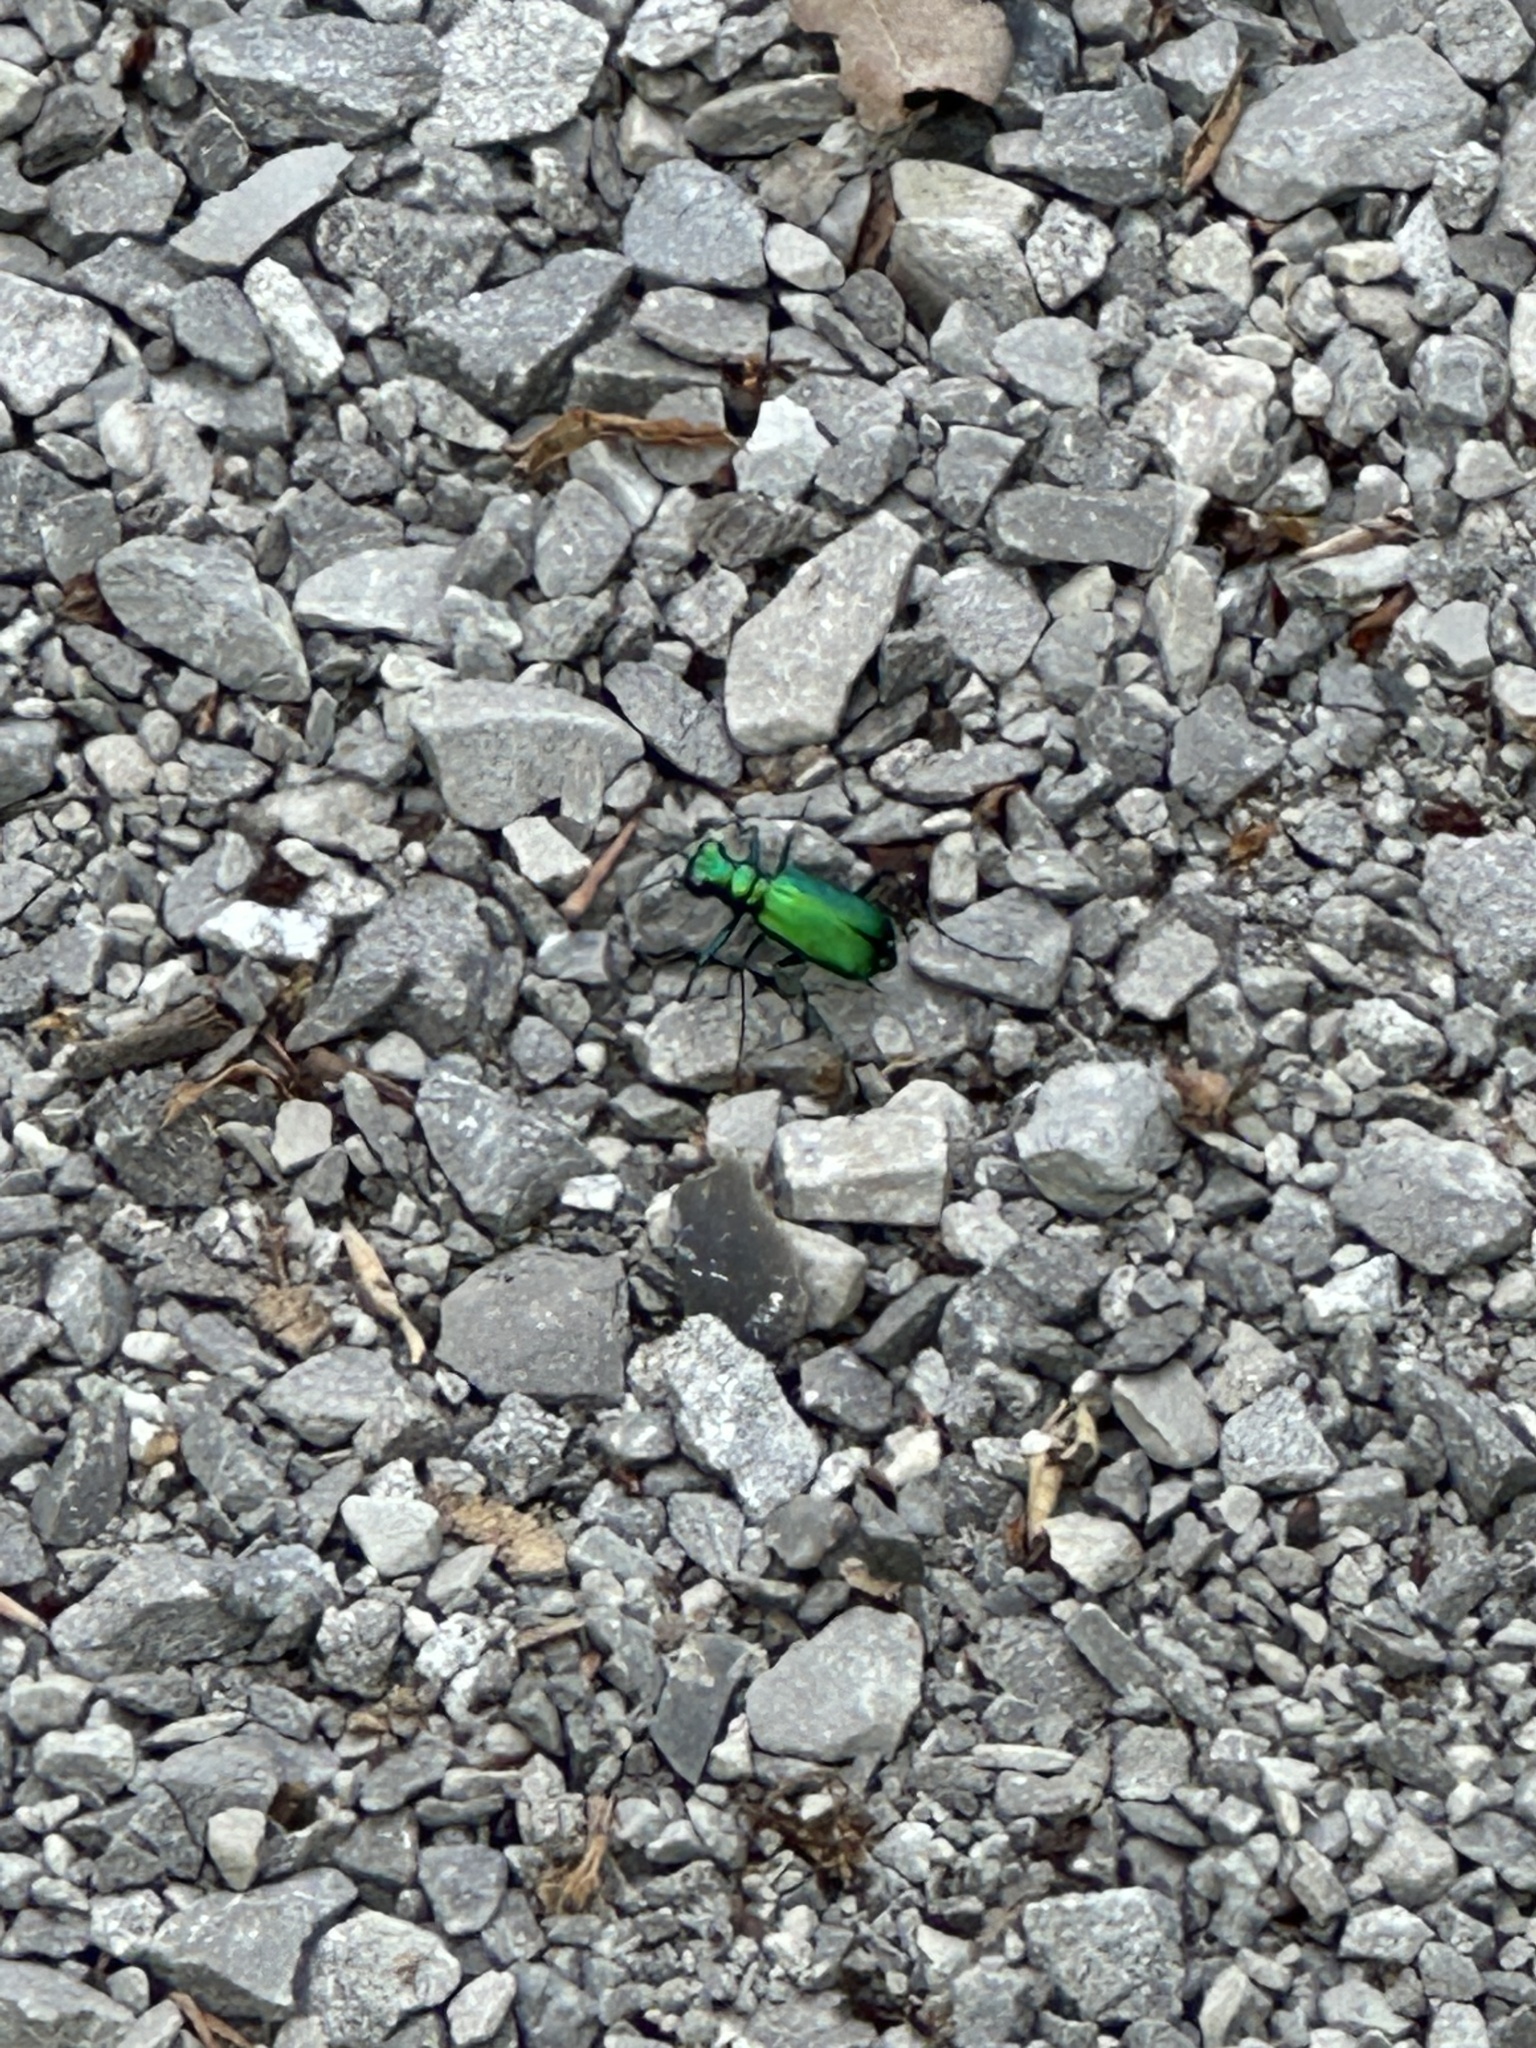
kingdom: Animalia
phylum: Arthropoda
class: Insecta
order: Coleoptera
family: Carabidae
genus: Cicindela
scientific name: Cicindela sexguttata
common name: Six-spotted tiger beetle
